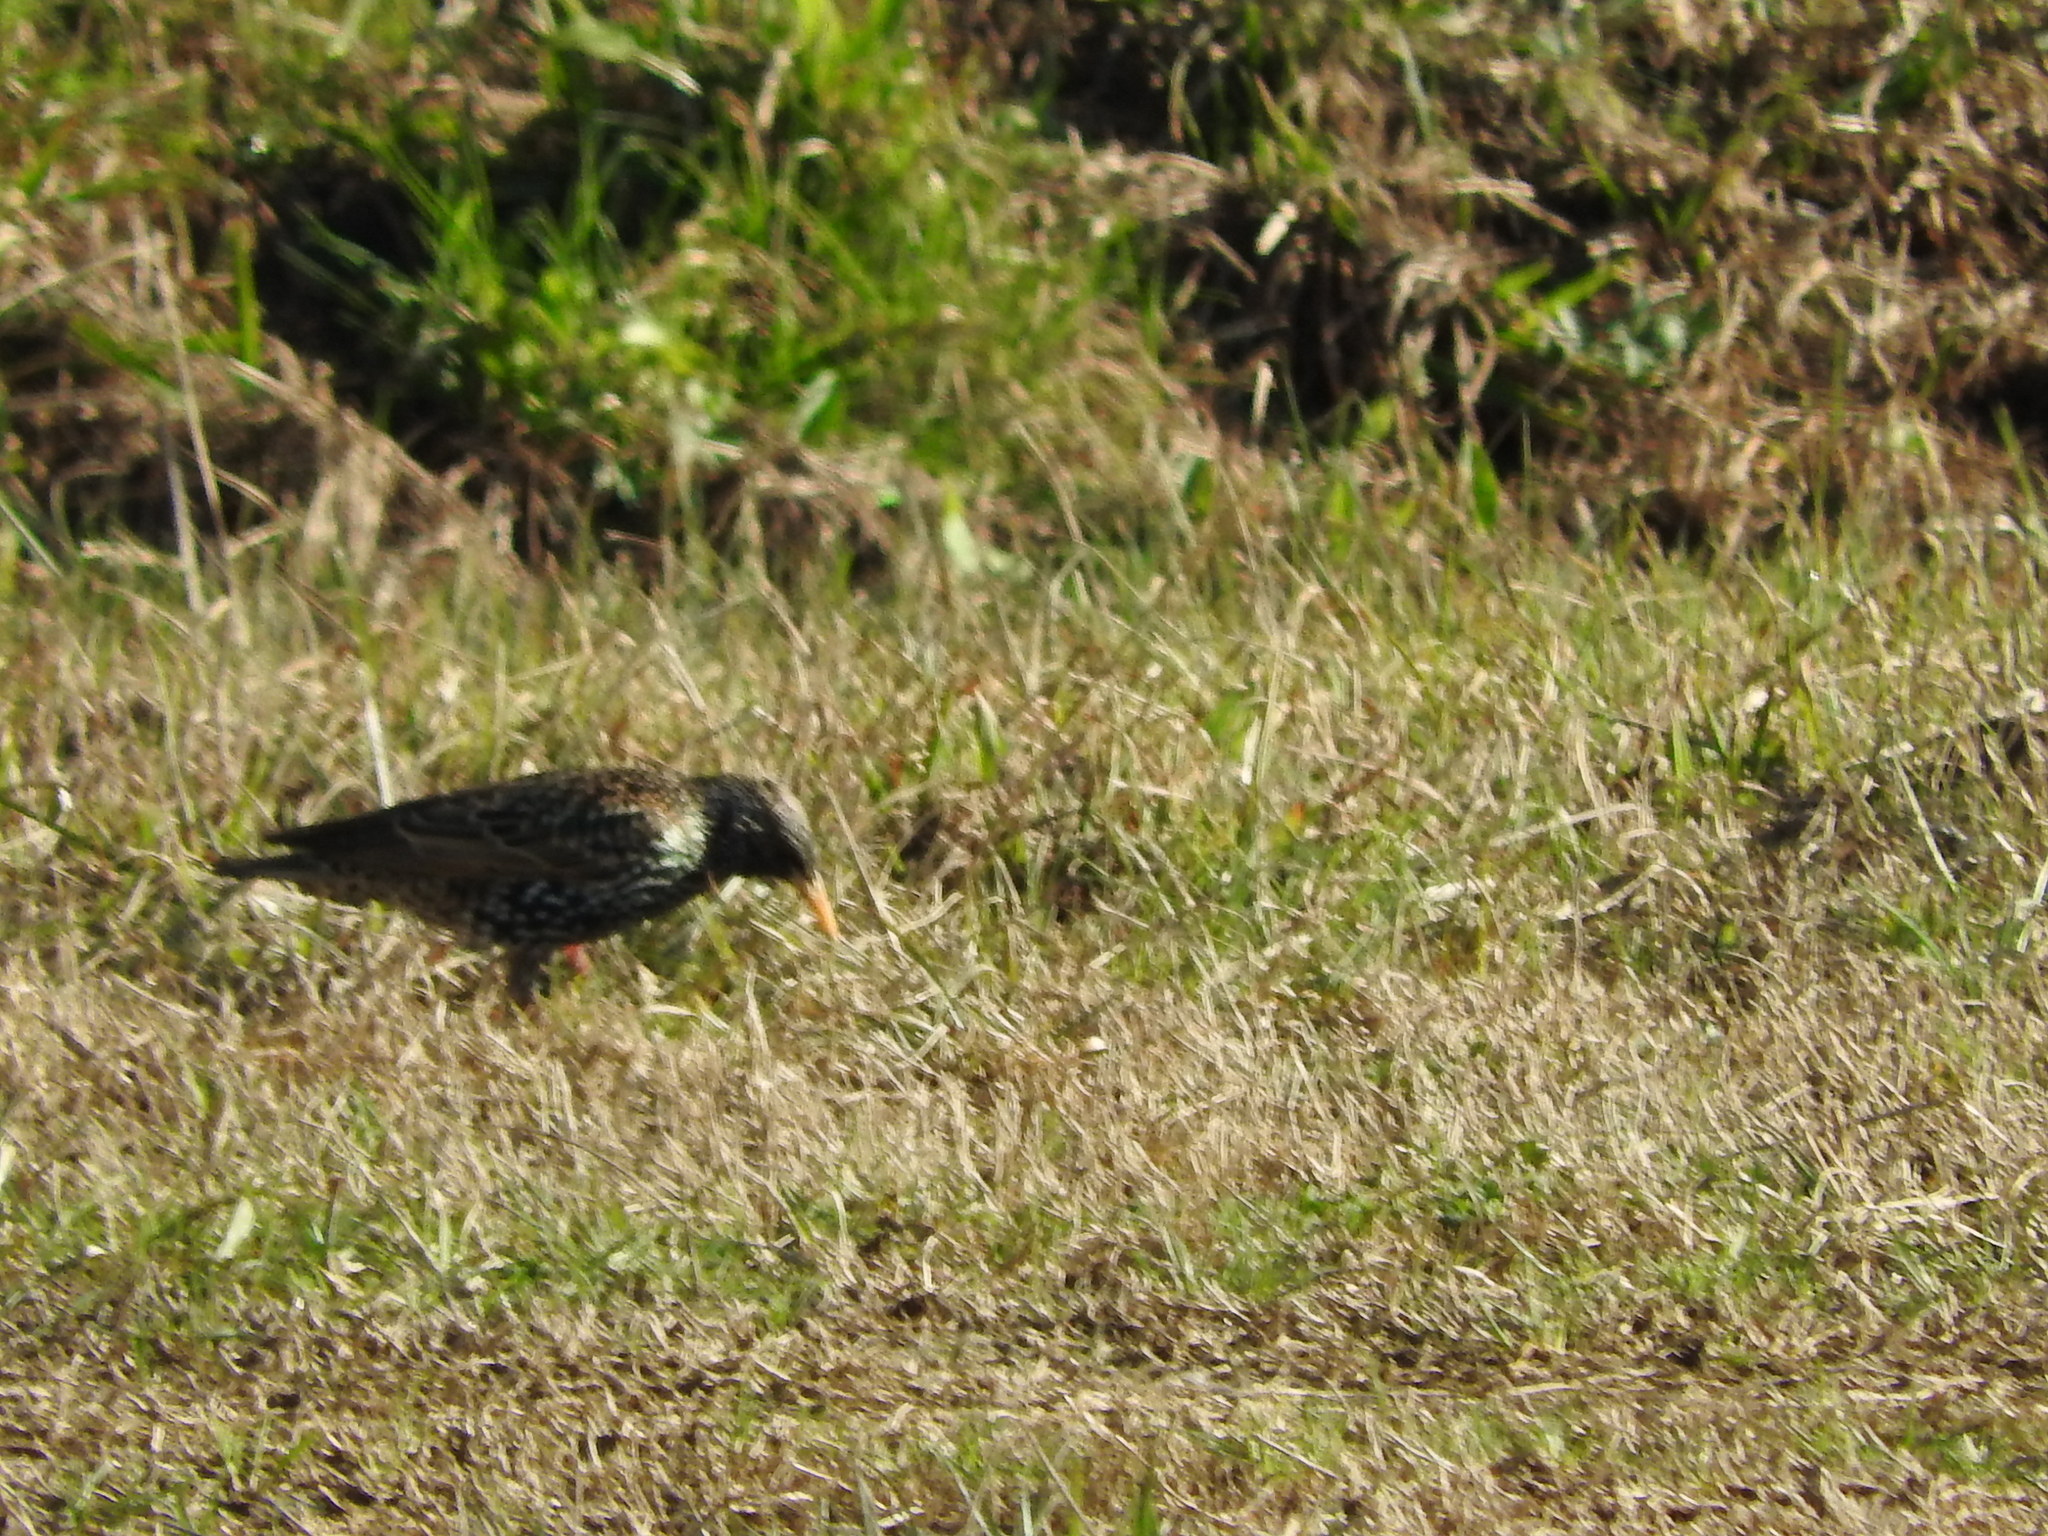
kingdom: Animalia
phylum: Chordata
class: Aves
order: Passeriformes
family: Sturnidae
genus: Sturnus
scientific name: Sturnus vulgaris
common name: Common starling
